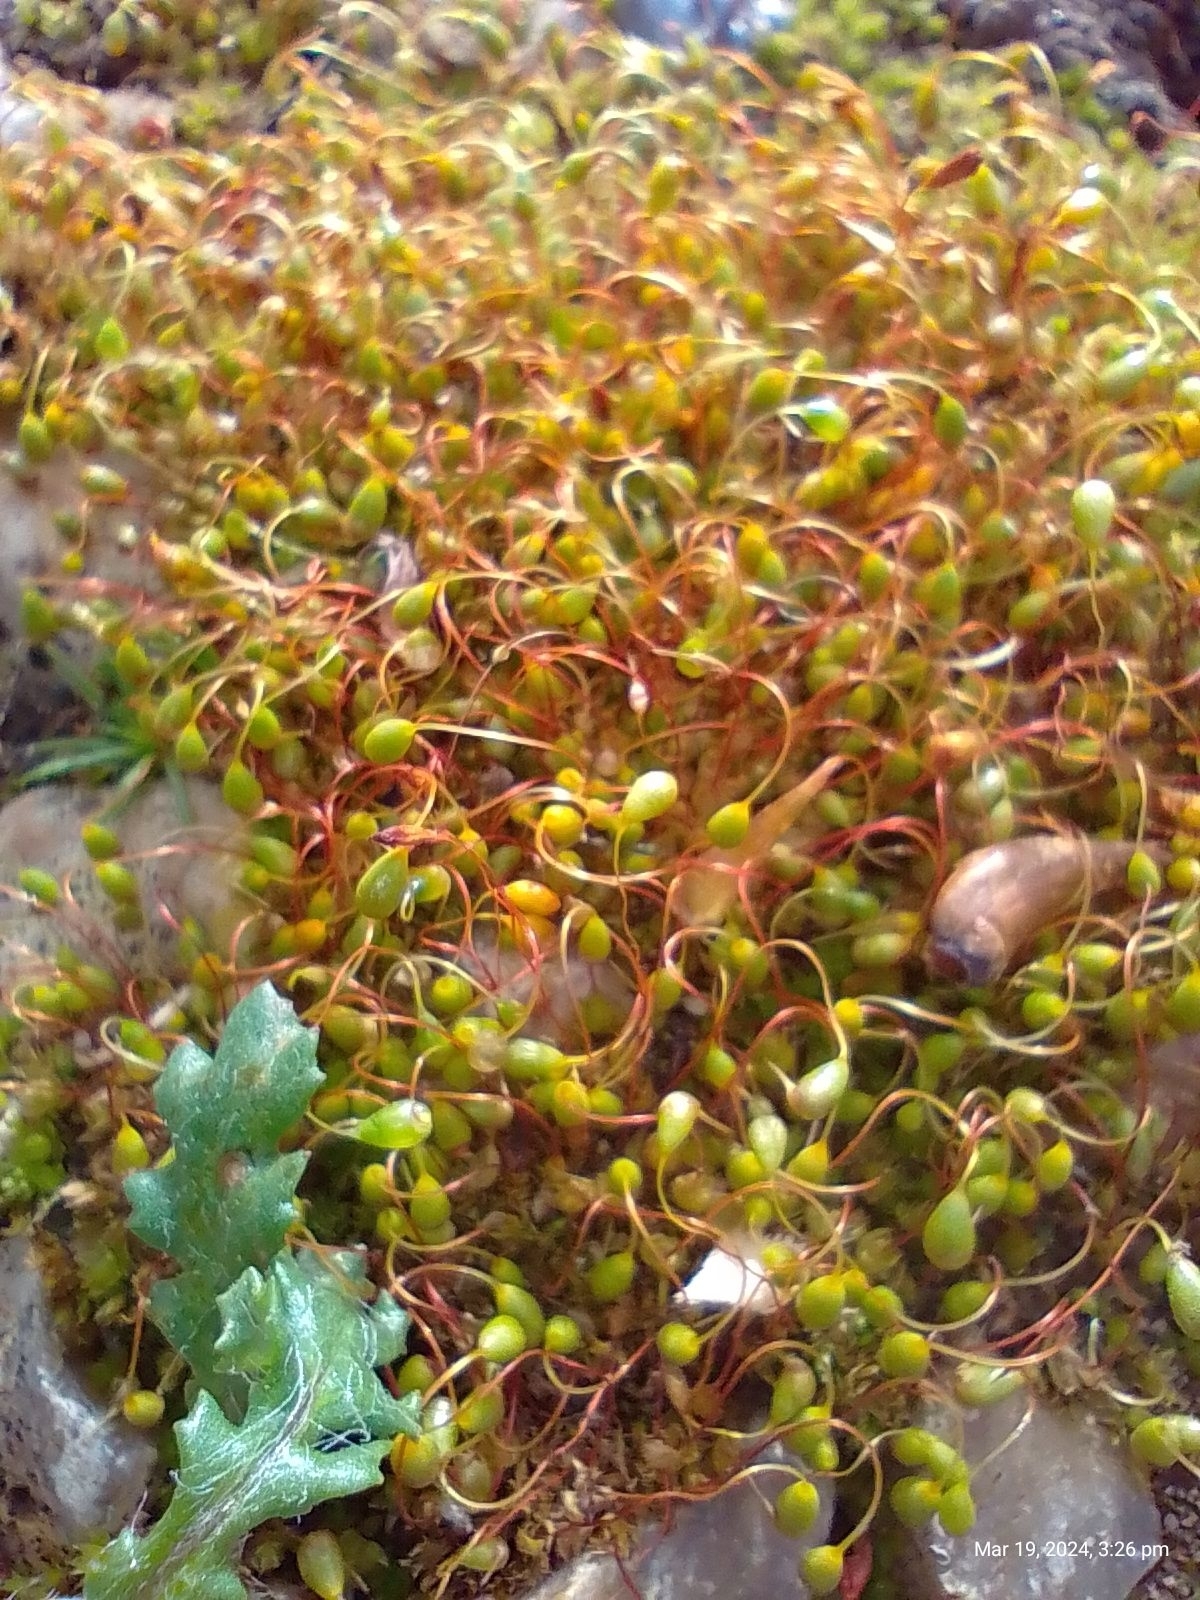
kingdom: Plantae
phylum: Bryophyta
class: Bryopsida
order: Funariales
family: Funariaceae
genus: Funaria
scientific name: Funaria hygrometrica
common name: Common cord moss
